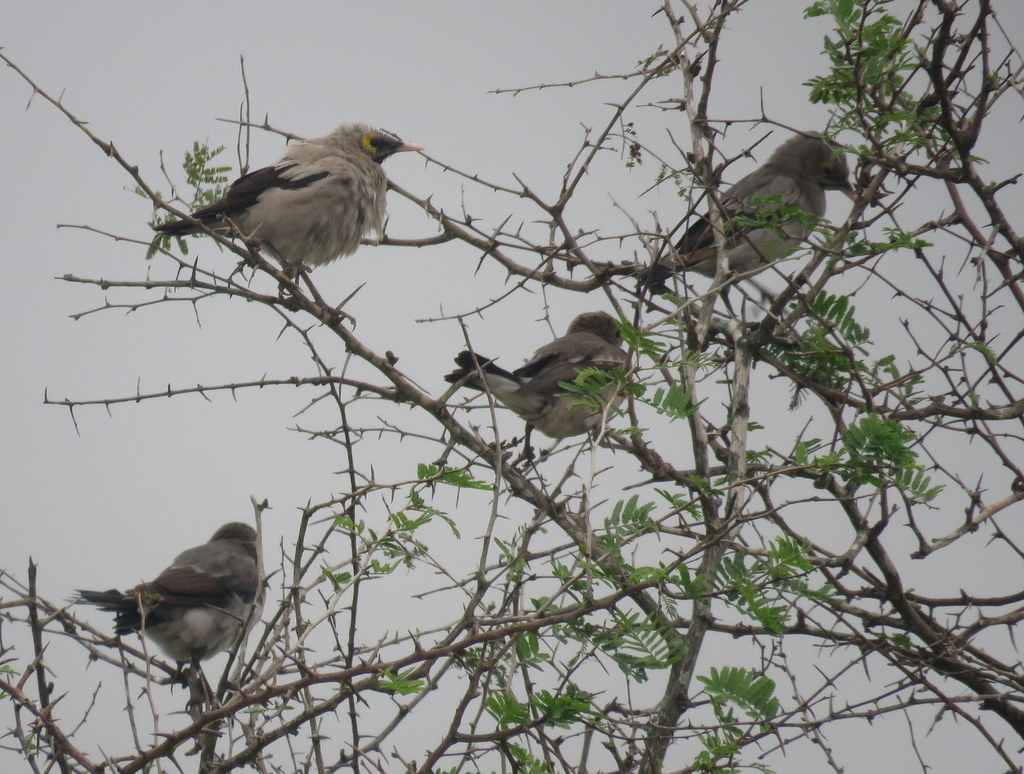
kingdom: Animalia
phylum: Chordata
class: Aves
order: Passeriformes
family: Sturnidae
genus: Creatophora
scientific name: Creatophora cinerea
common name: Wattled starling
